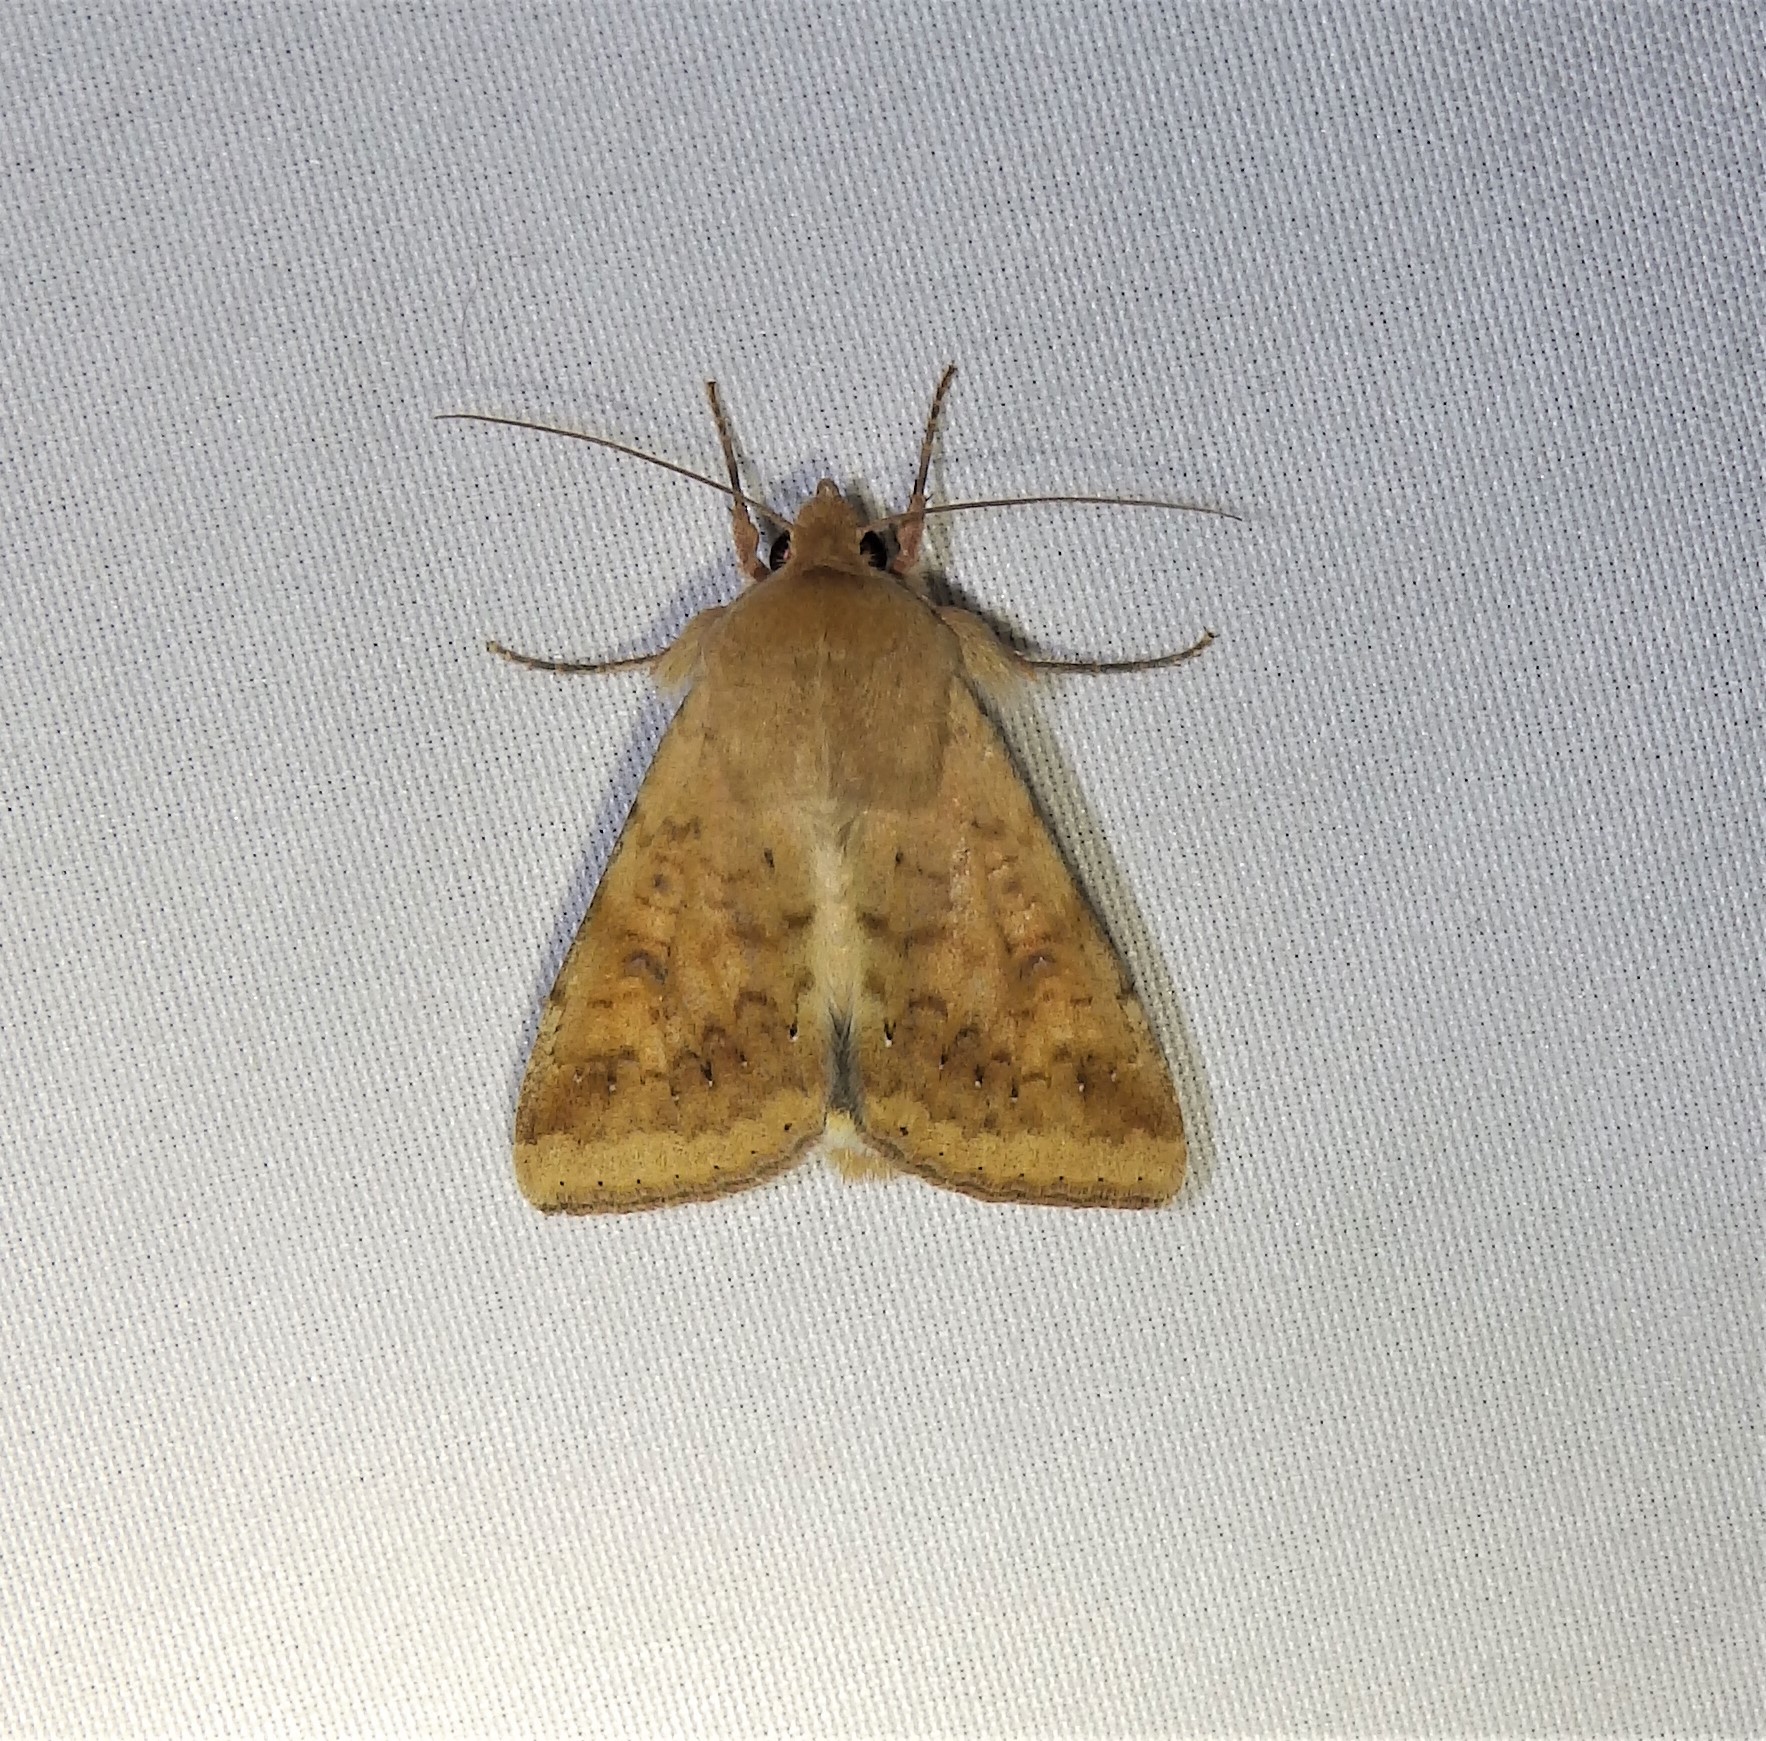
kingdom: Animalia
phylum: Arthropoda
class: Insecta
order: Lepidoptera
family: Noctuidae
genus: Helicoverpa
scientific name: Helicoverpa zea
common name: Bollworm
